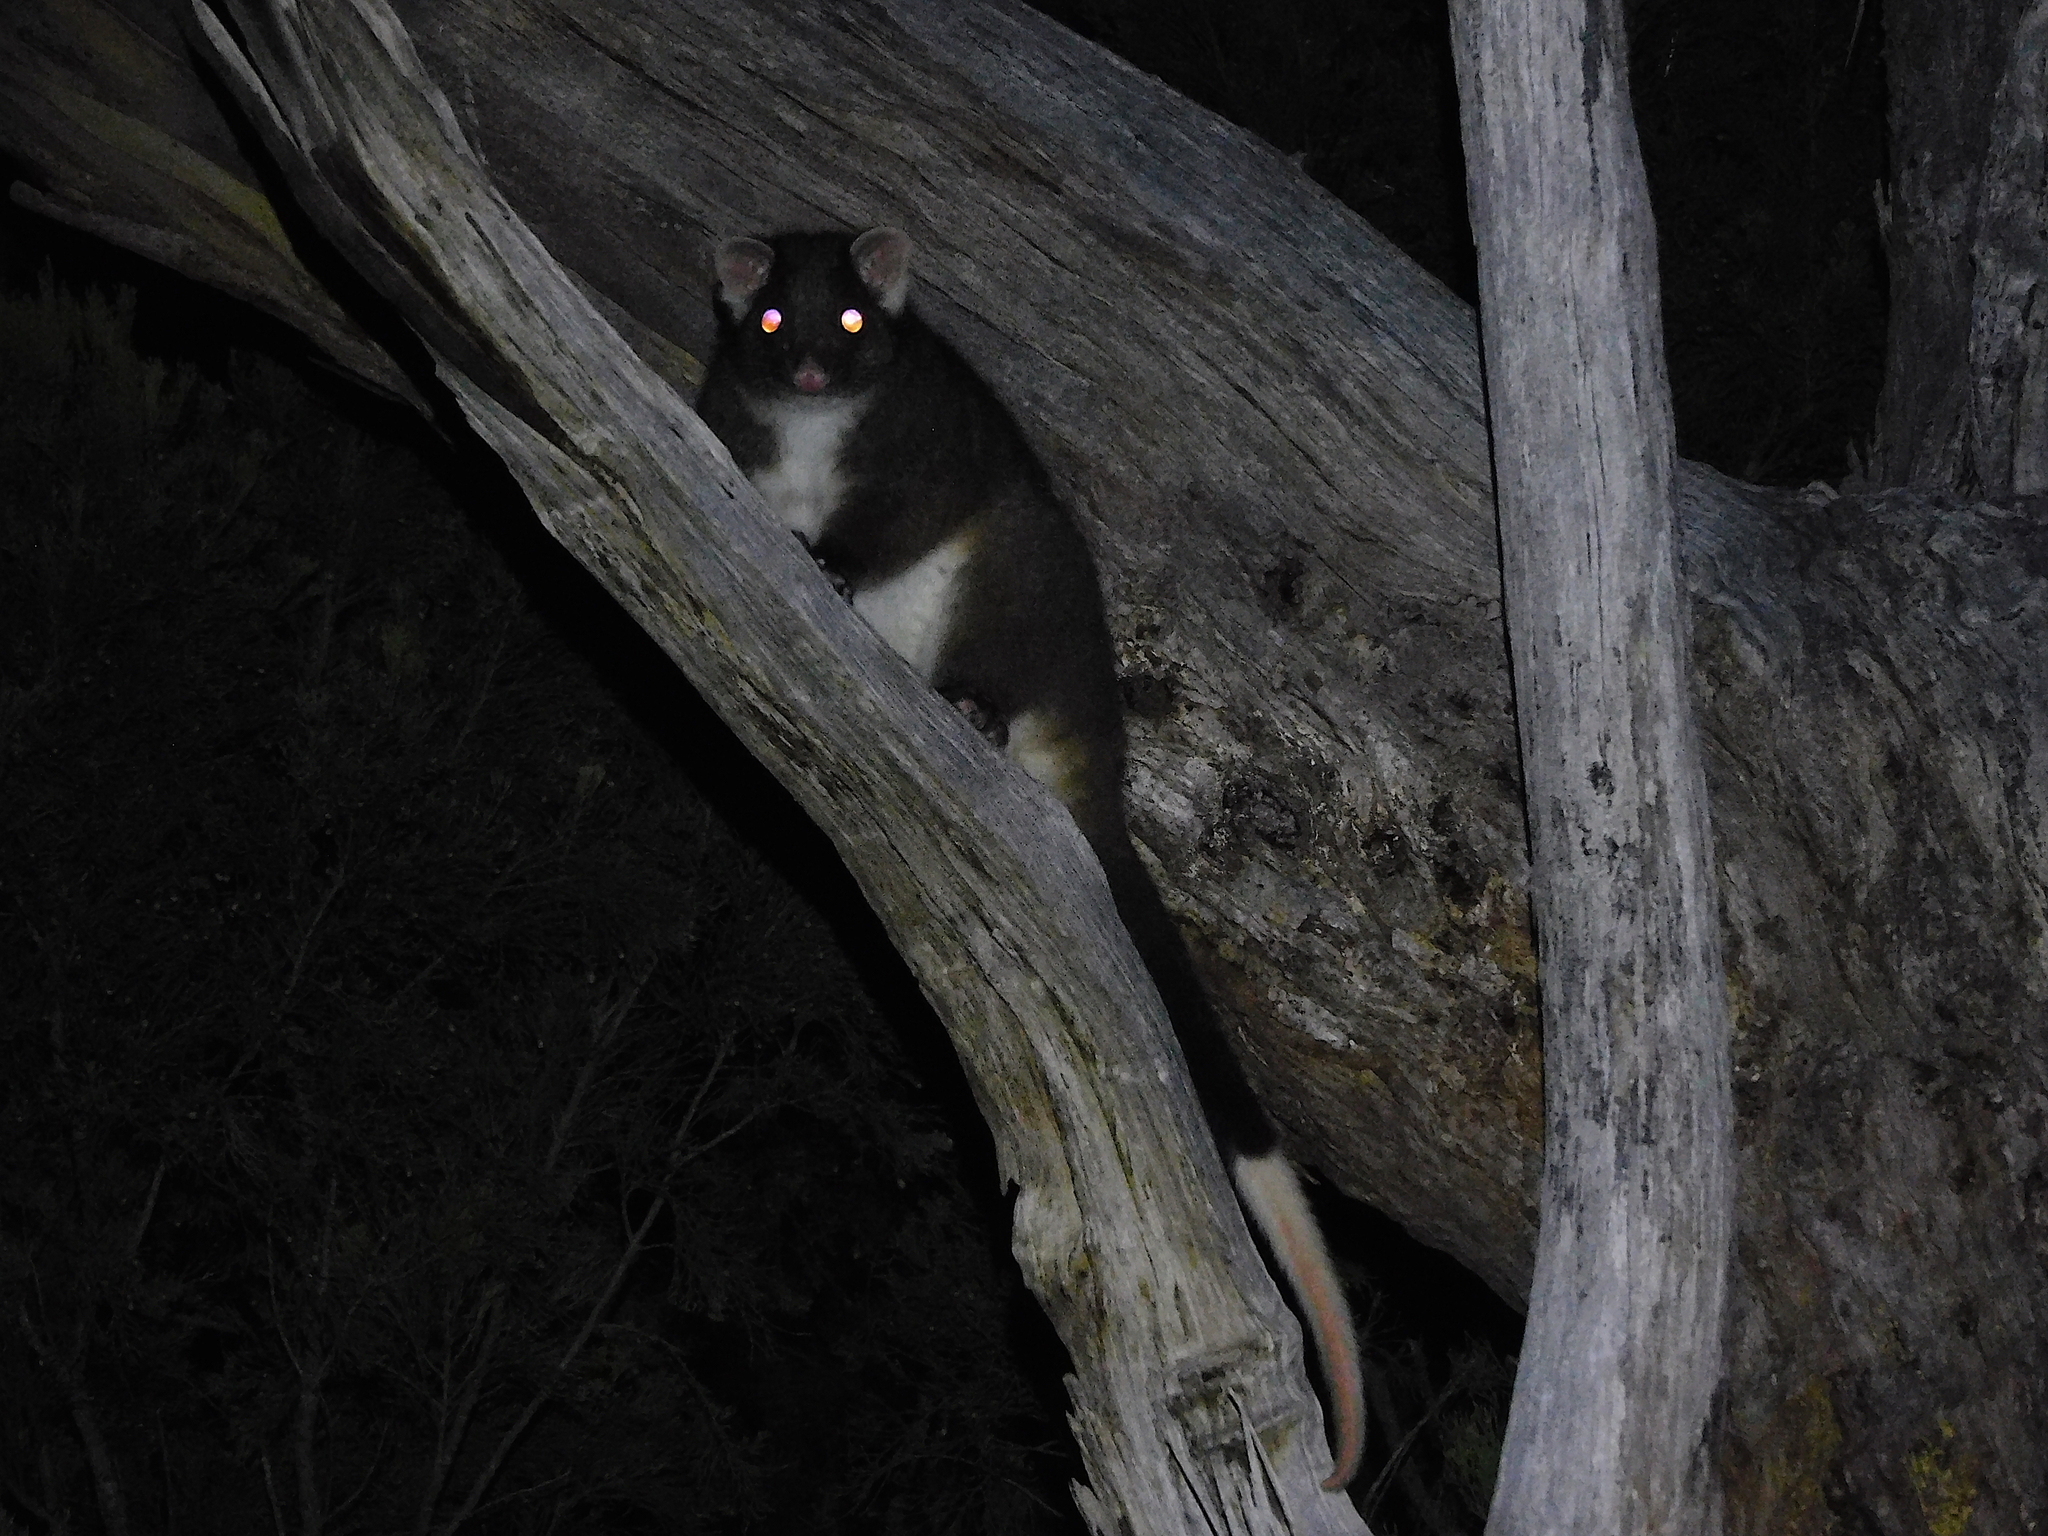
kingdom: Animalia
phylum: Chordata
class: Mammalia
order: Diprotodontia
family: Pseudocheiridae
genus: Pseudocheirus
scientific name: Pseudocheirus peregrinus
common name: Common ringtail possum
